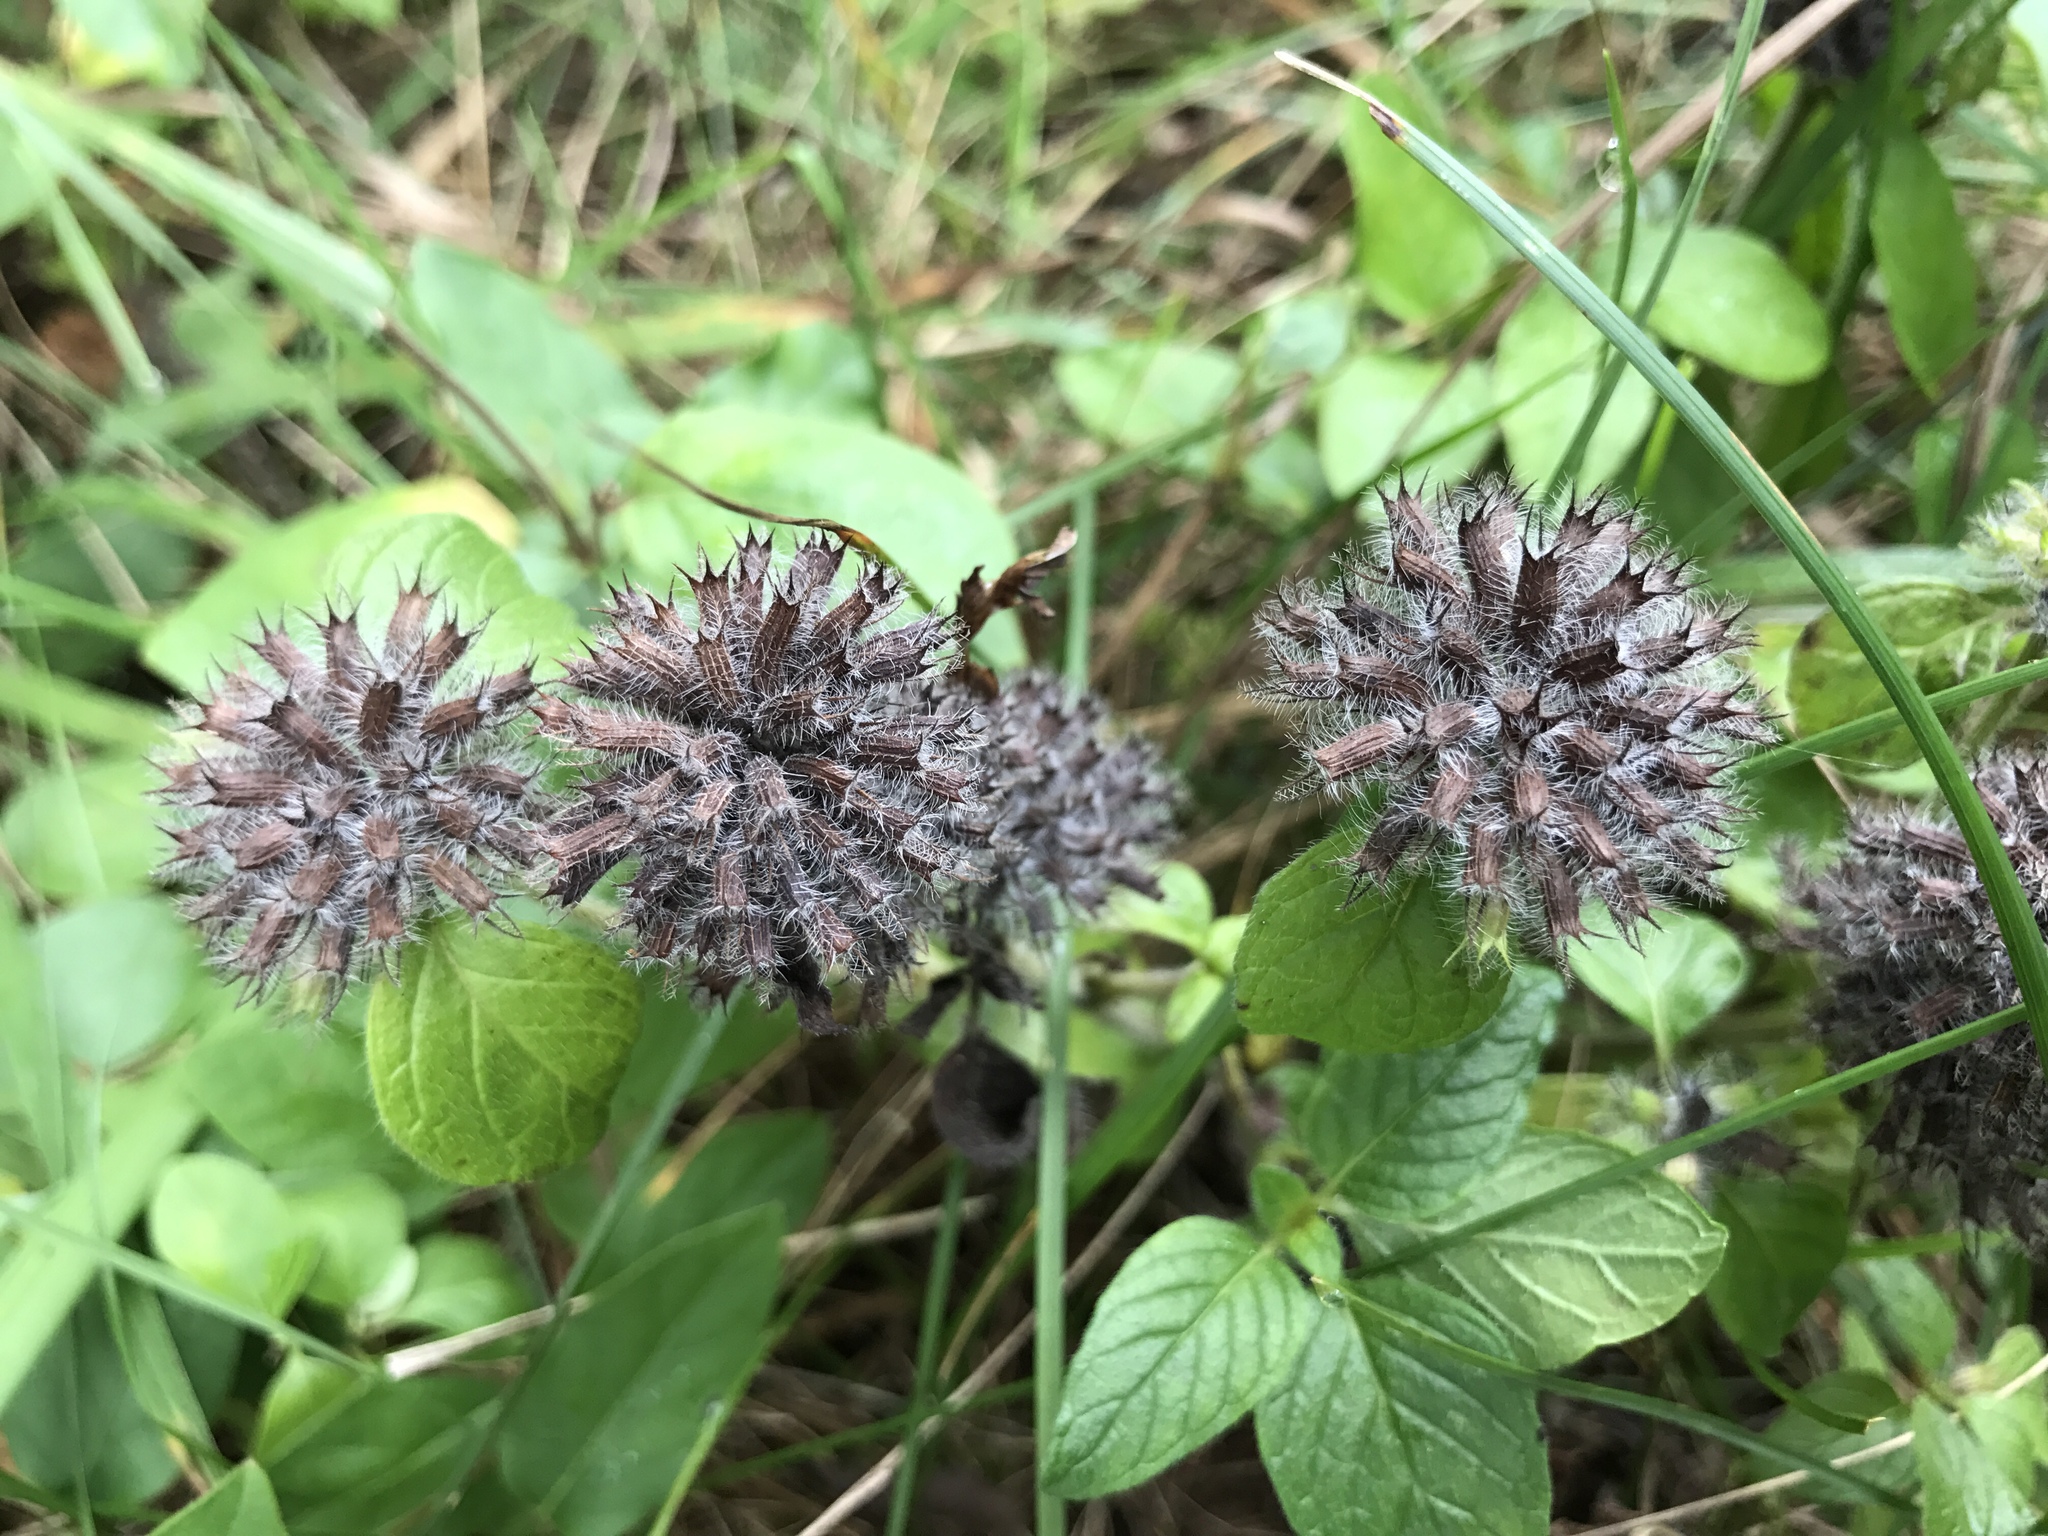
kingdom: Plantae
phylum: Tracheophyta
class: Magnoliopsida
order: Lamiales
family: Lamiaceae
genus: Clinopodium
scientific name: Clinopodium vulgare
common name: Wild basil
